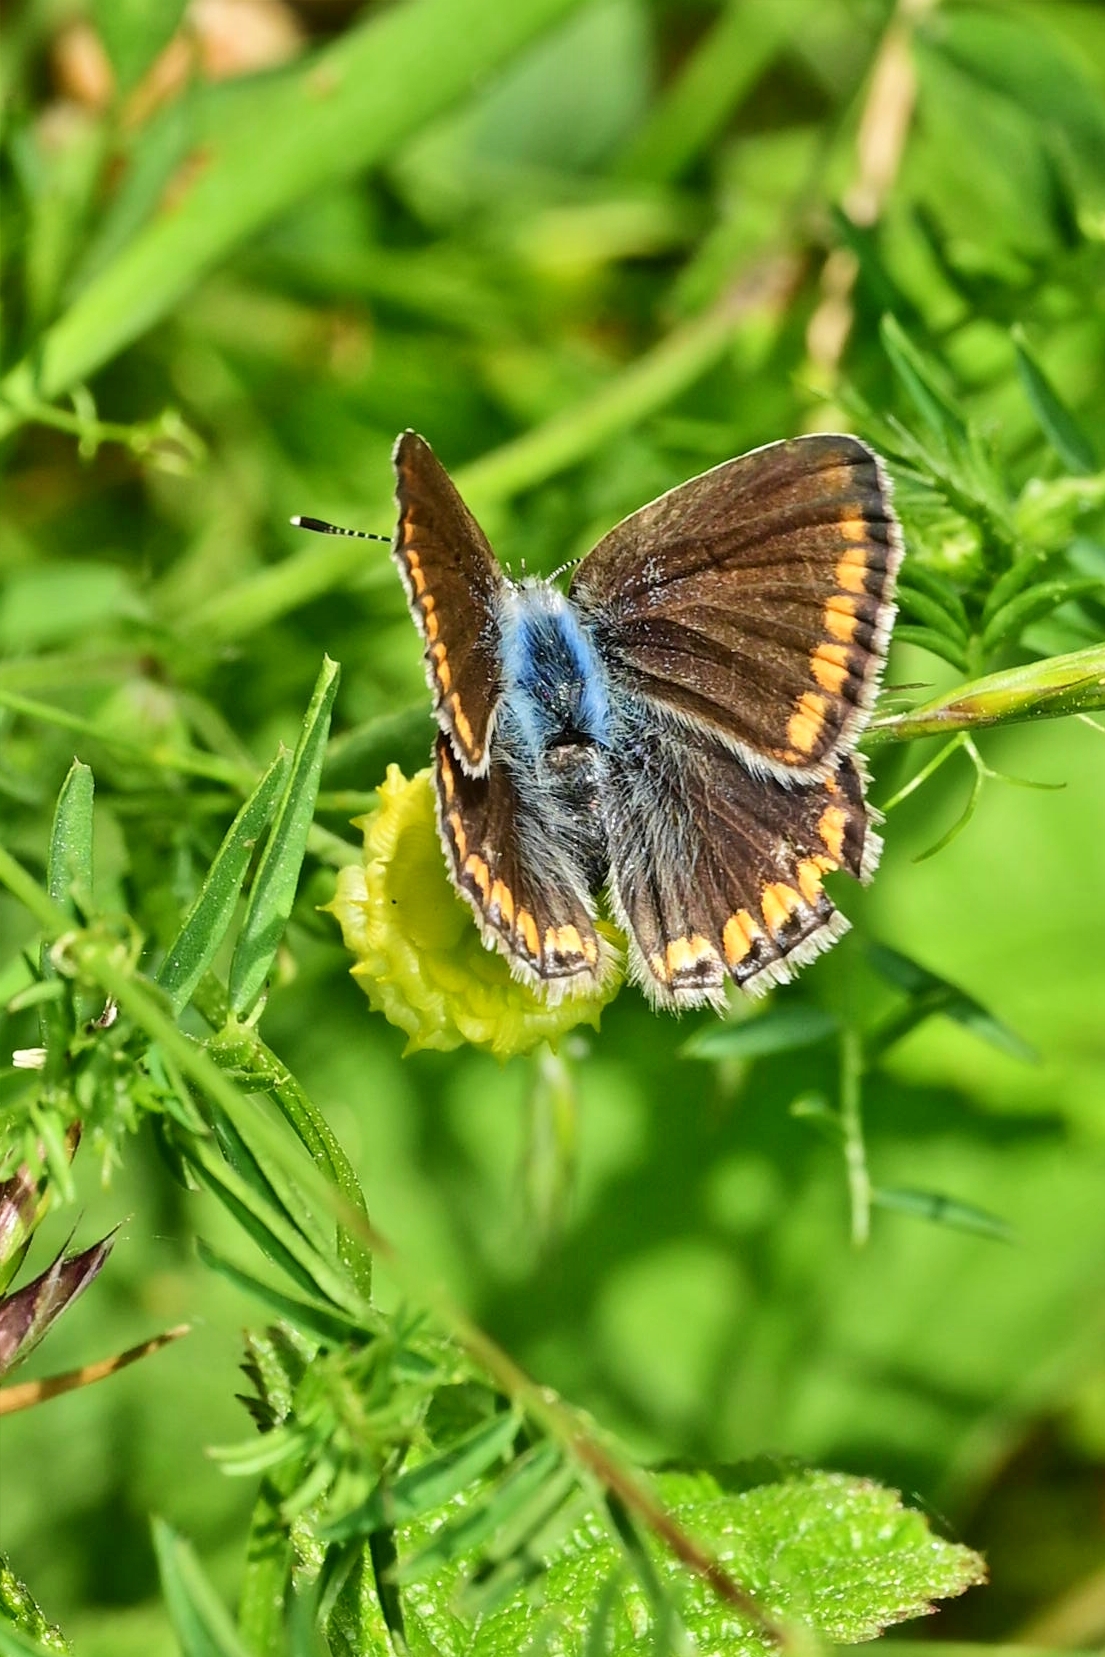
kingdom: Animalia
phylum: Arthropoda
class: Insecta
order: Lepidoptera
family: Lycaenidae
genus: Polyommatus
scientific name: Polyommatus icarus
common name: Common blue
